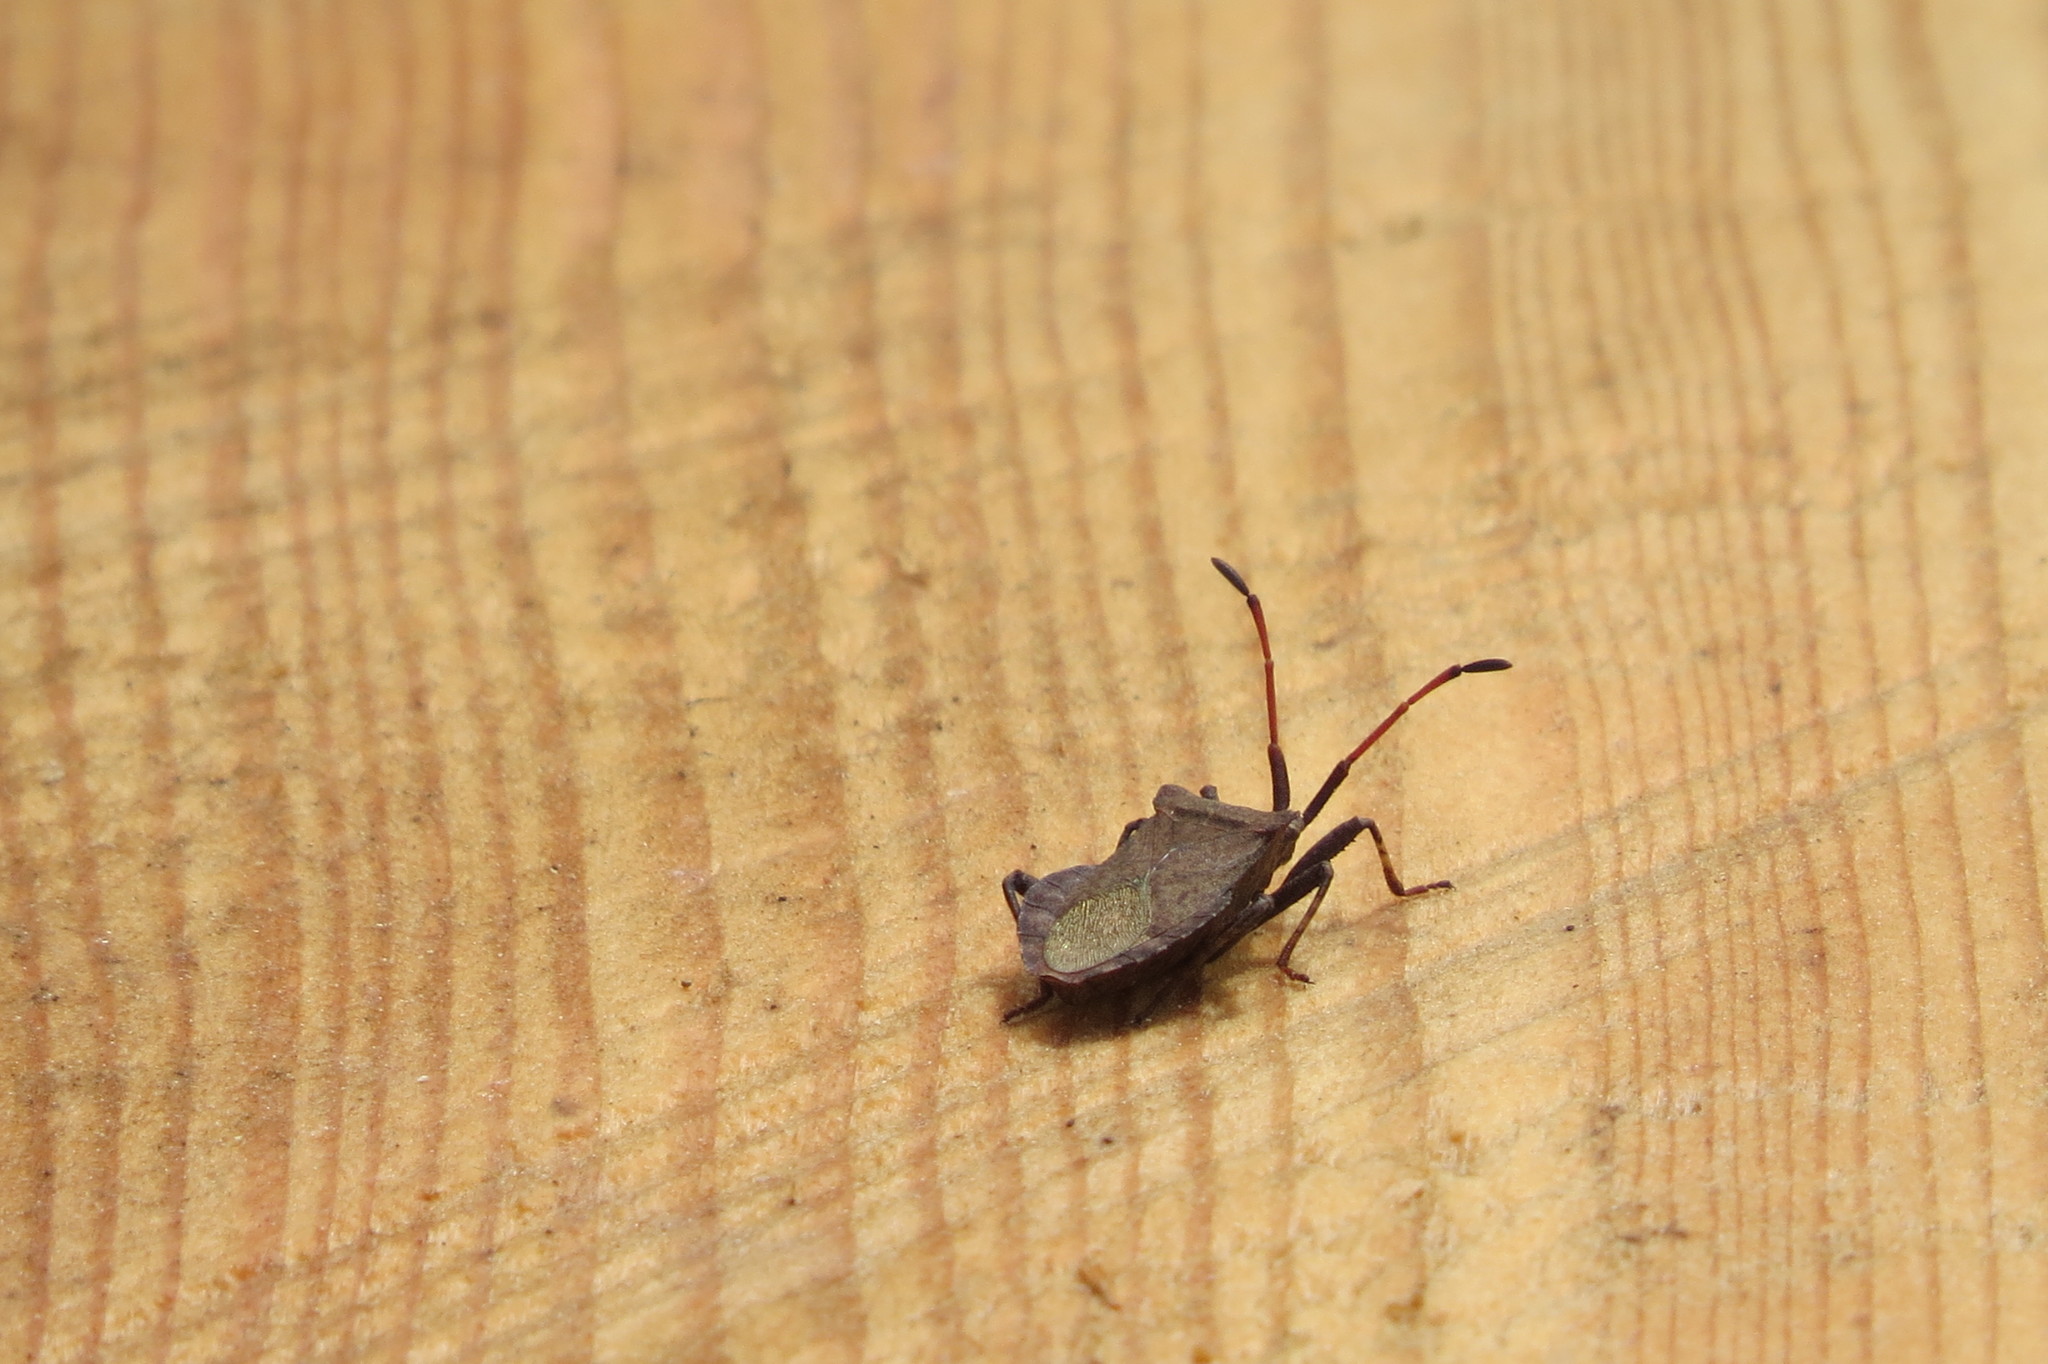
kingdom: Animalia
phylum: Arthropoda
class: Insecta
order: Hemiptera
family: Coreidae
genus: Coreus
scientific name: Coreus marginatus
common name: Dock bug
